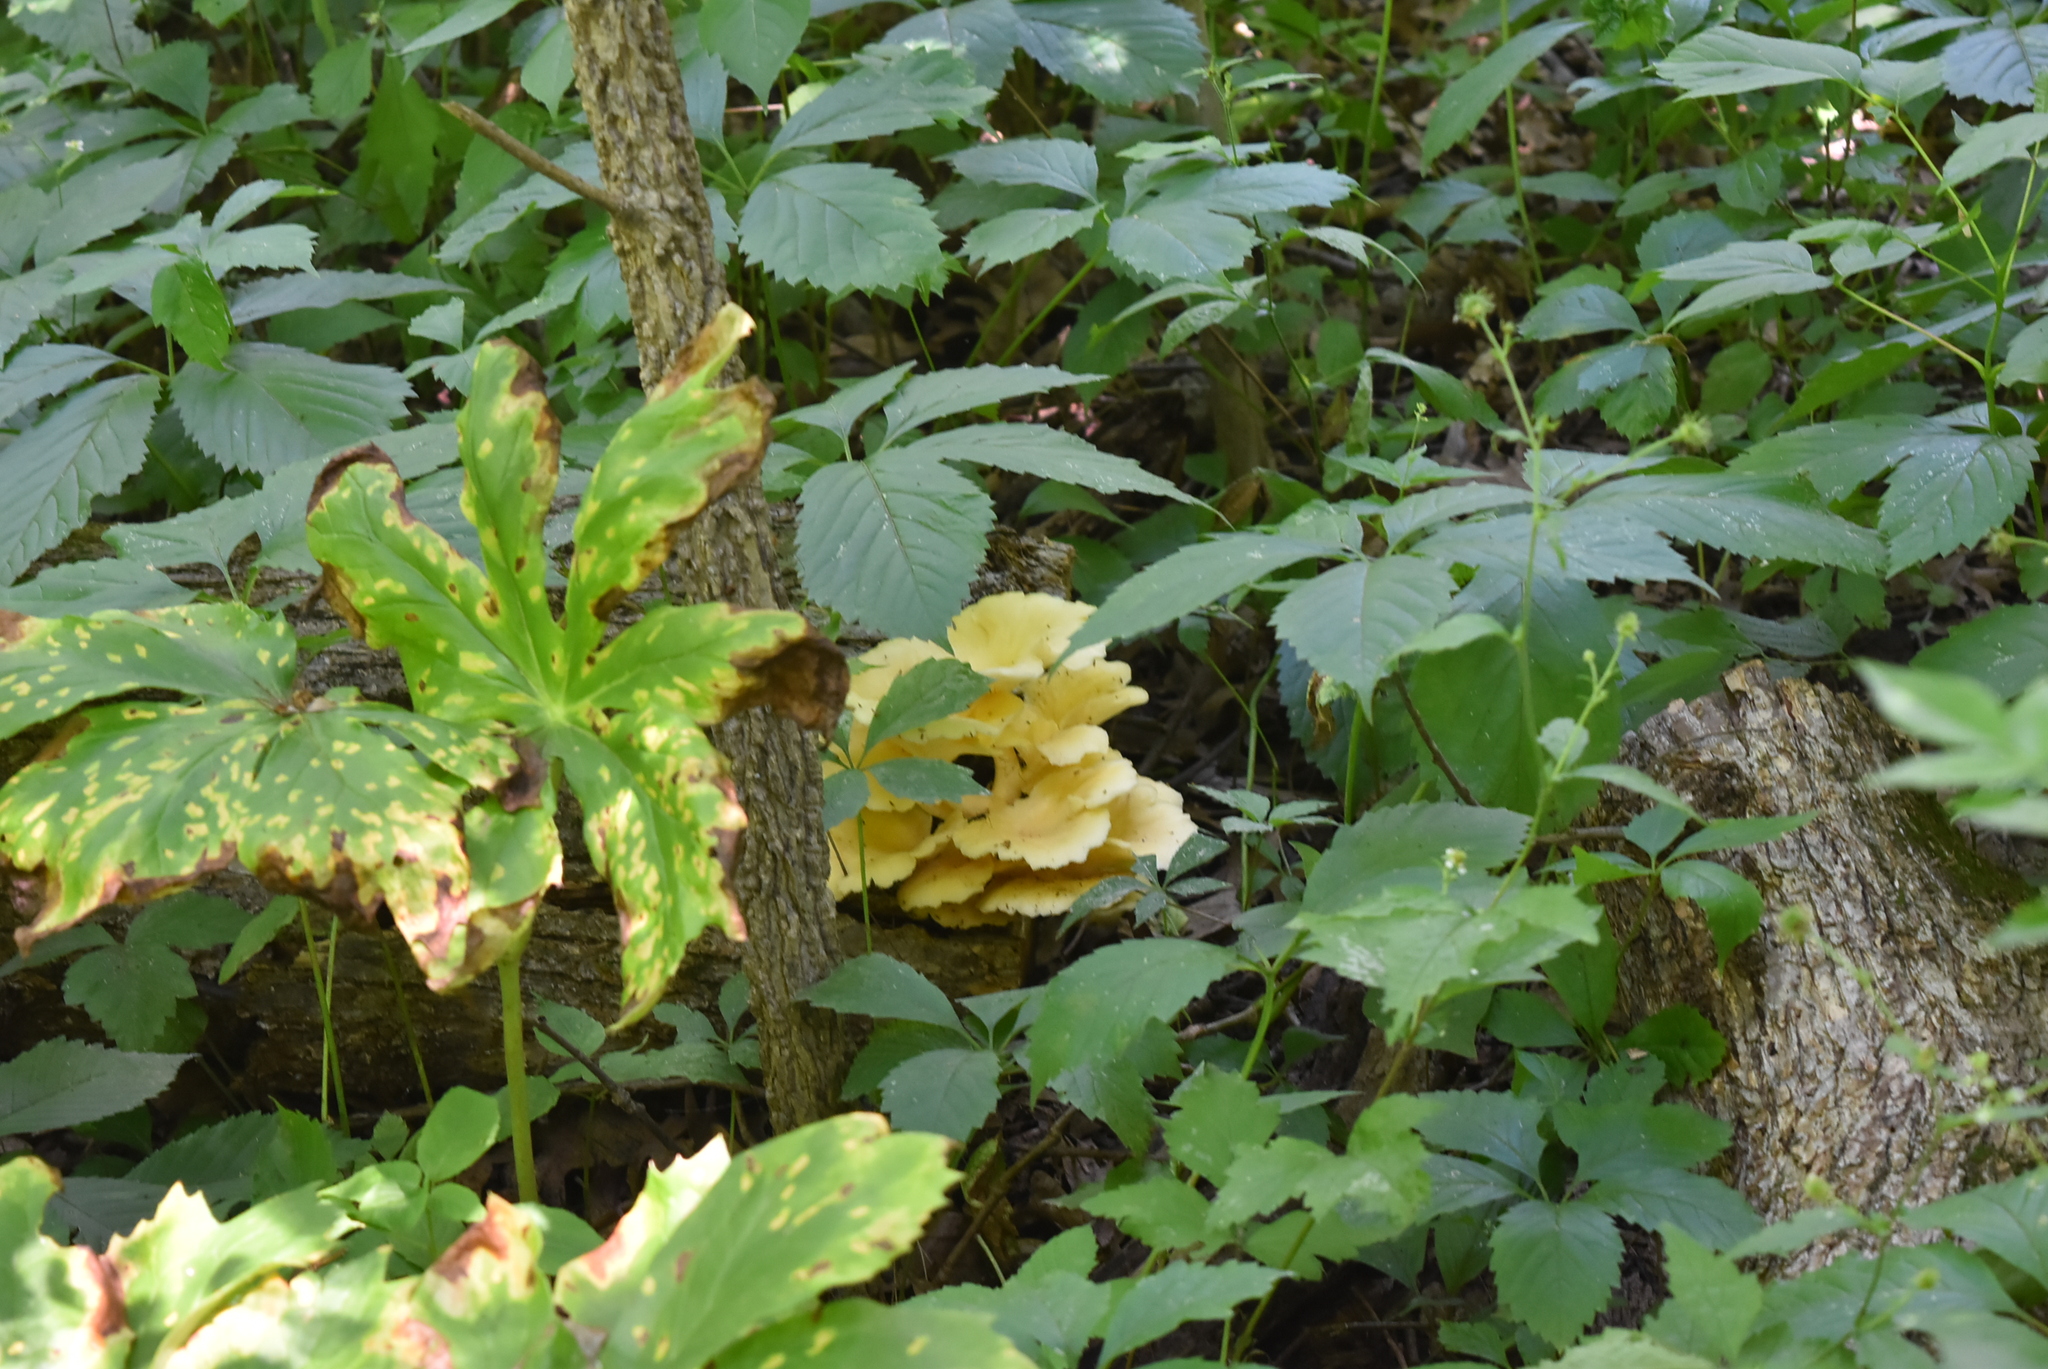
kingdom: Fungi
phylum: Basidiomycota
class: Agaricomycetes
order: Agaricales
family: Pleurotaceae
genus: Pleurotus
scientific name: Pleurotus citrinopileatus
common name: Golden oyster mushroom
